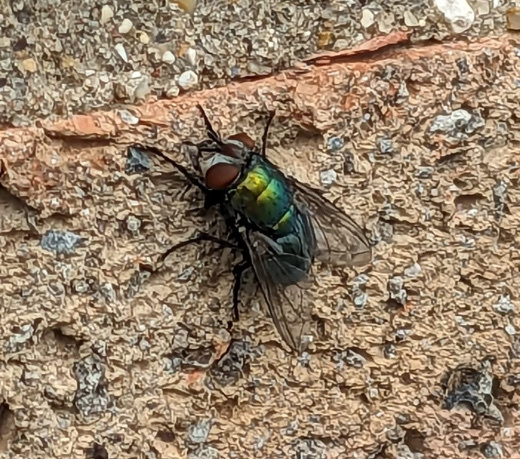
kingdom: Animalia
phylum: Arthropoda
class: Insecta
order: Diptera
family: Calliphoridae
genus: Lucilia
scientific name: Lucilia
